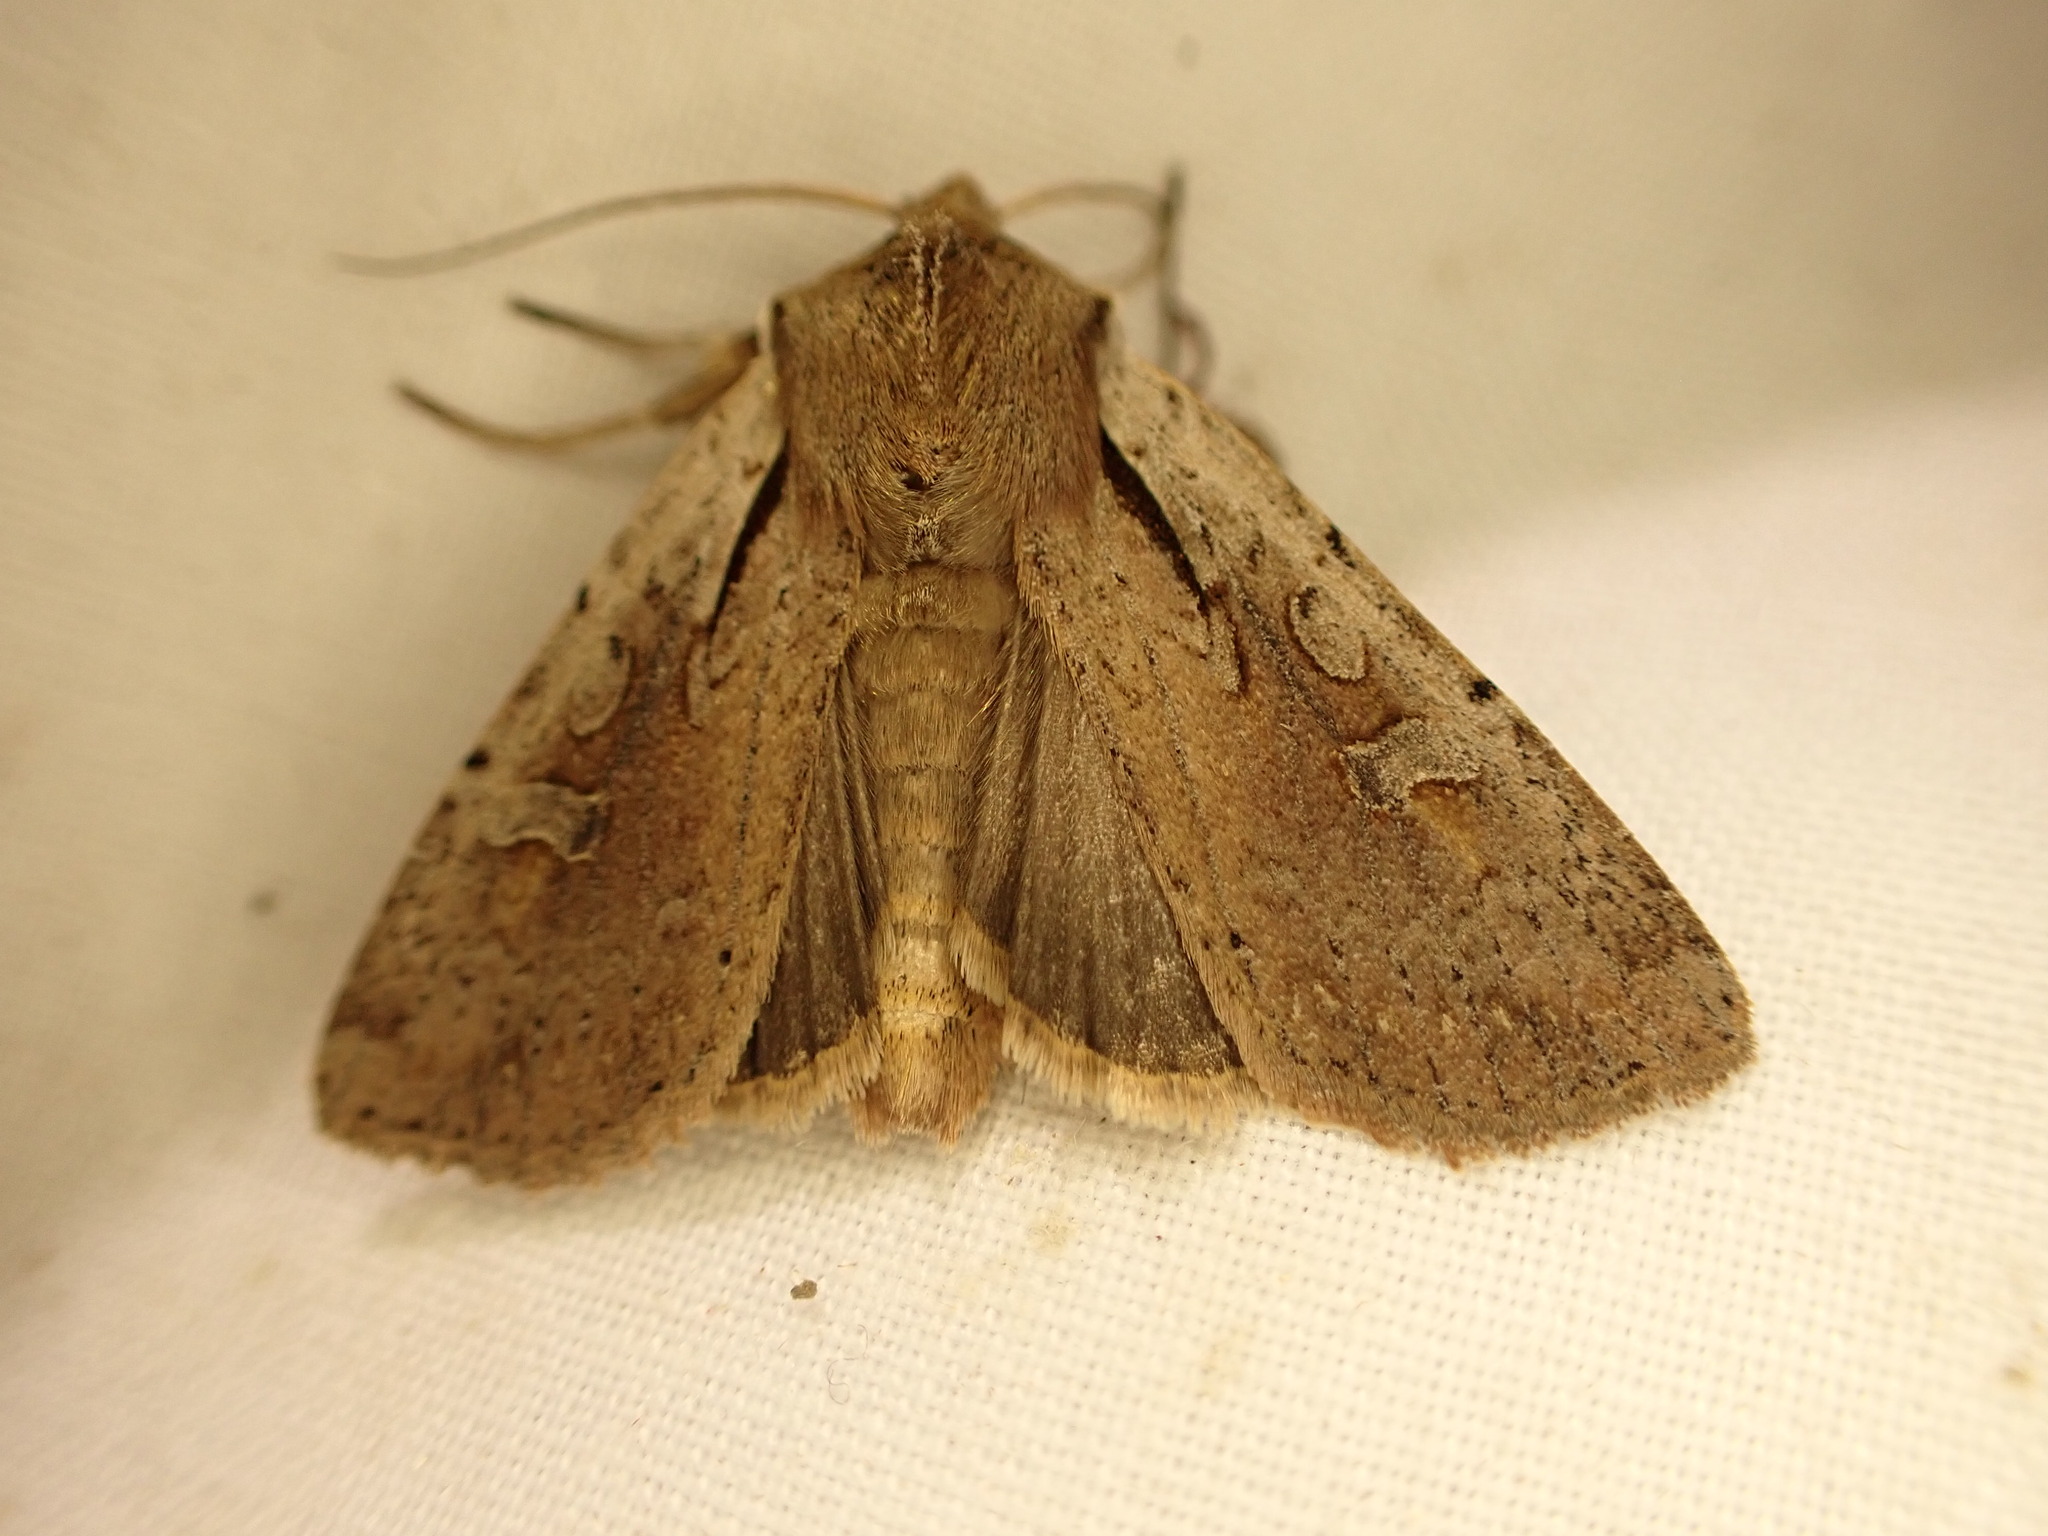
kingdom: Animalia
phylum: Arthropoda
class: Insecta
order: Lepidoptera
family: Noctuidae
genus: Ichneutica
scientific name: Ichneutica atristriga
